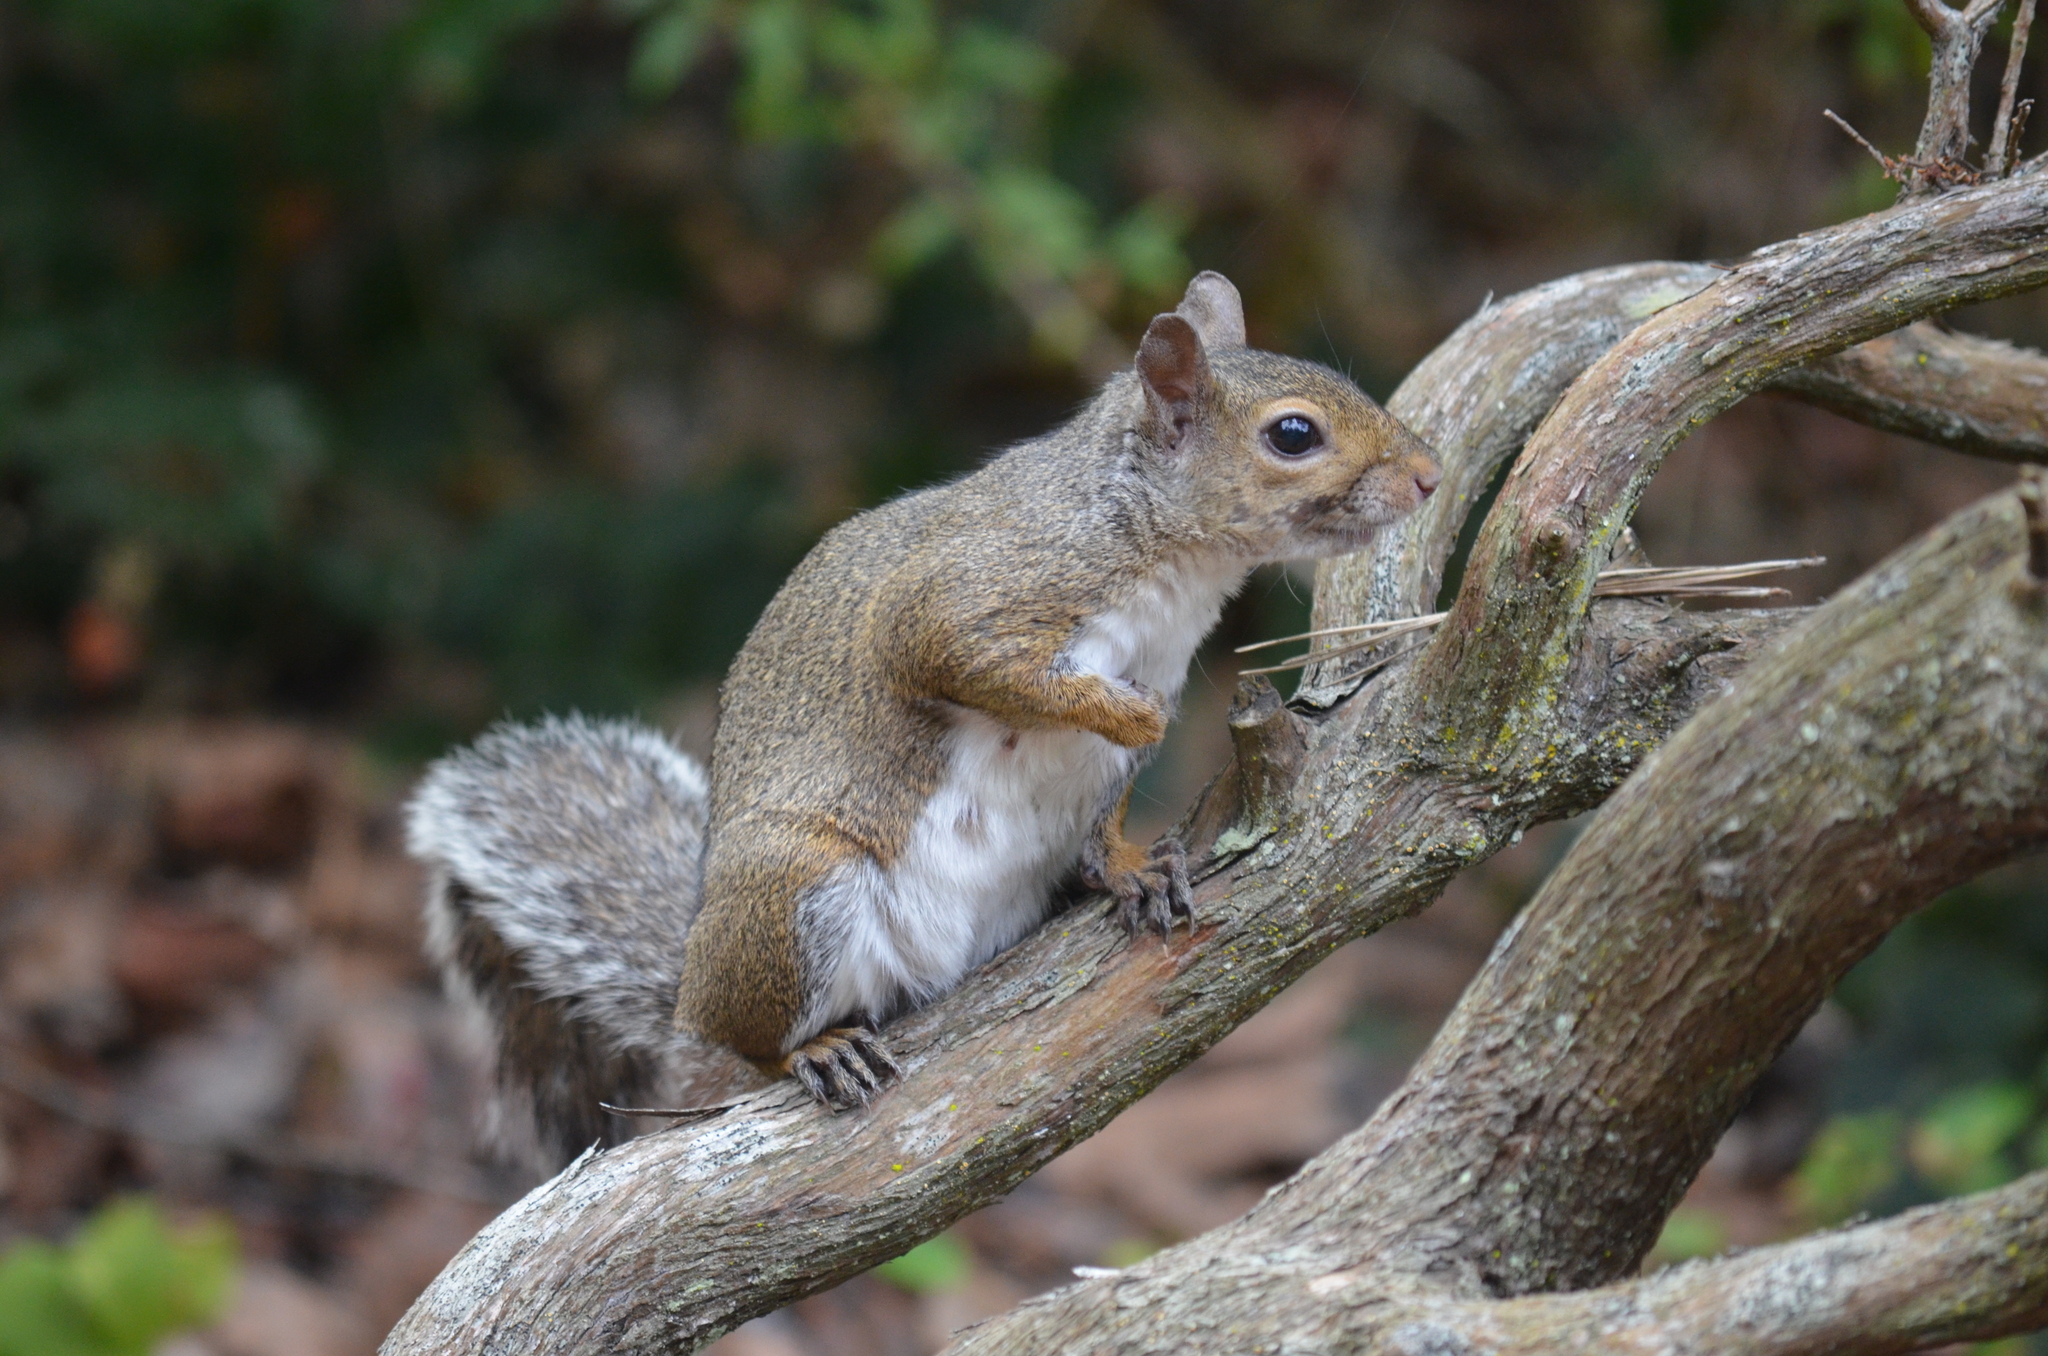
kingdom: Animalia
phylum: Chordata
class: Mammalia
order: Rodentia
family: Sciuridae
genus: Sciurus
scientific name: Sciurus carolinensis
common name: Eastern gray squirrel
